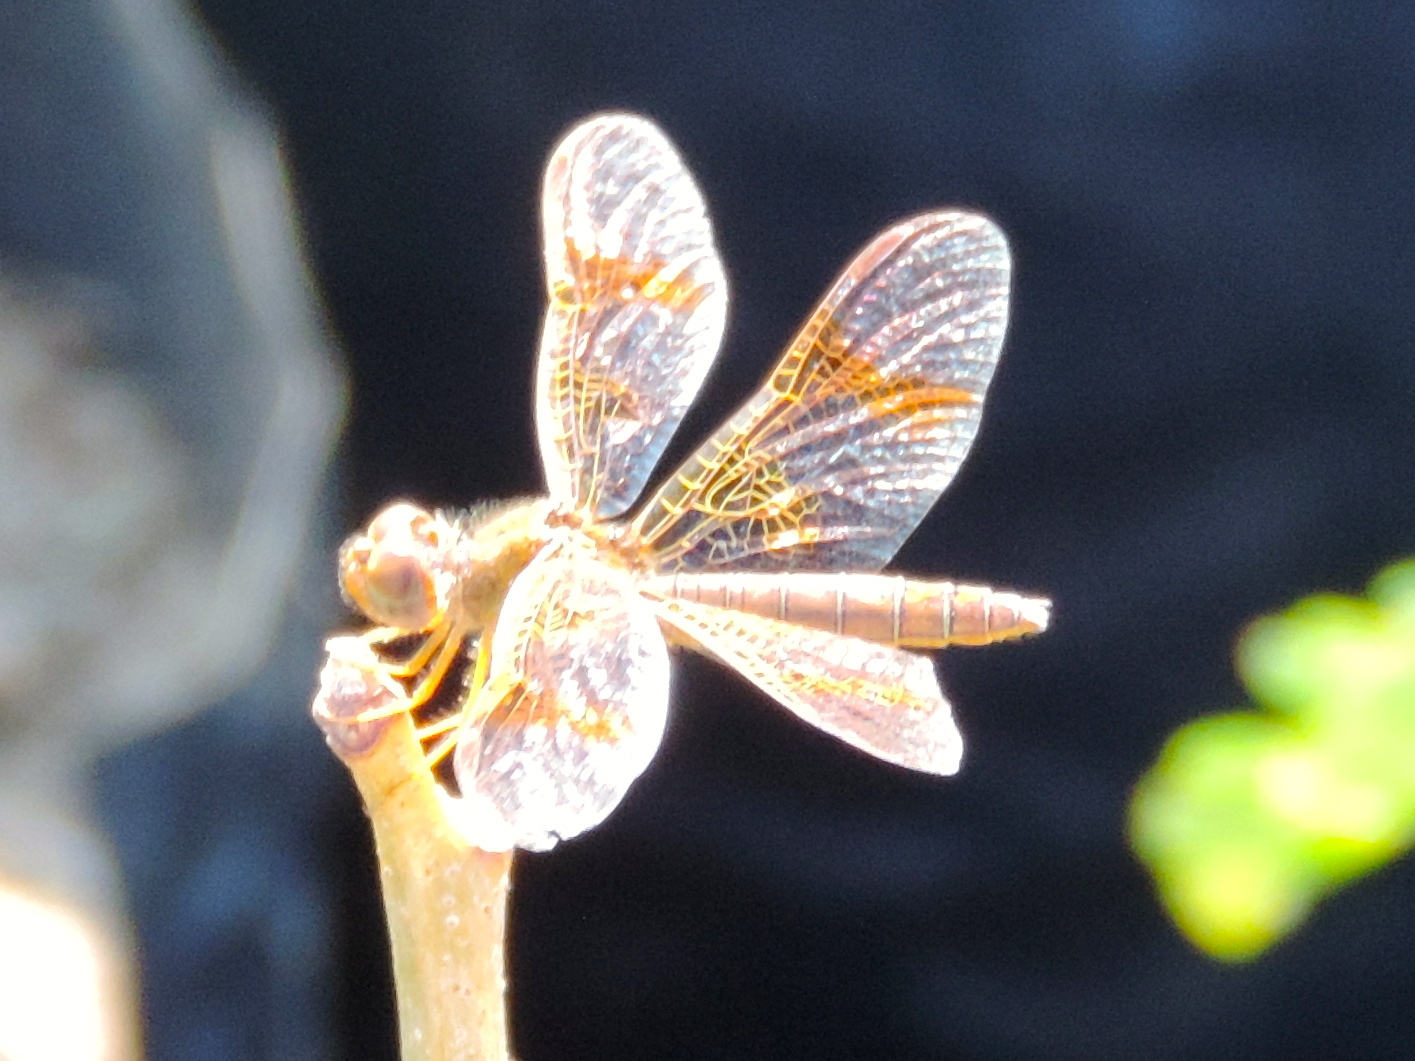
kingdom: Animalia
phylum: Arthropoda
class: Insecta
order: Odonata
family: Libellulidae
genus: Perithemis
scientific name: Perithemis intensa
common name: Mexican amberwing
